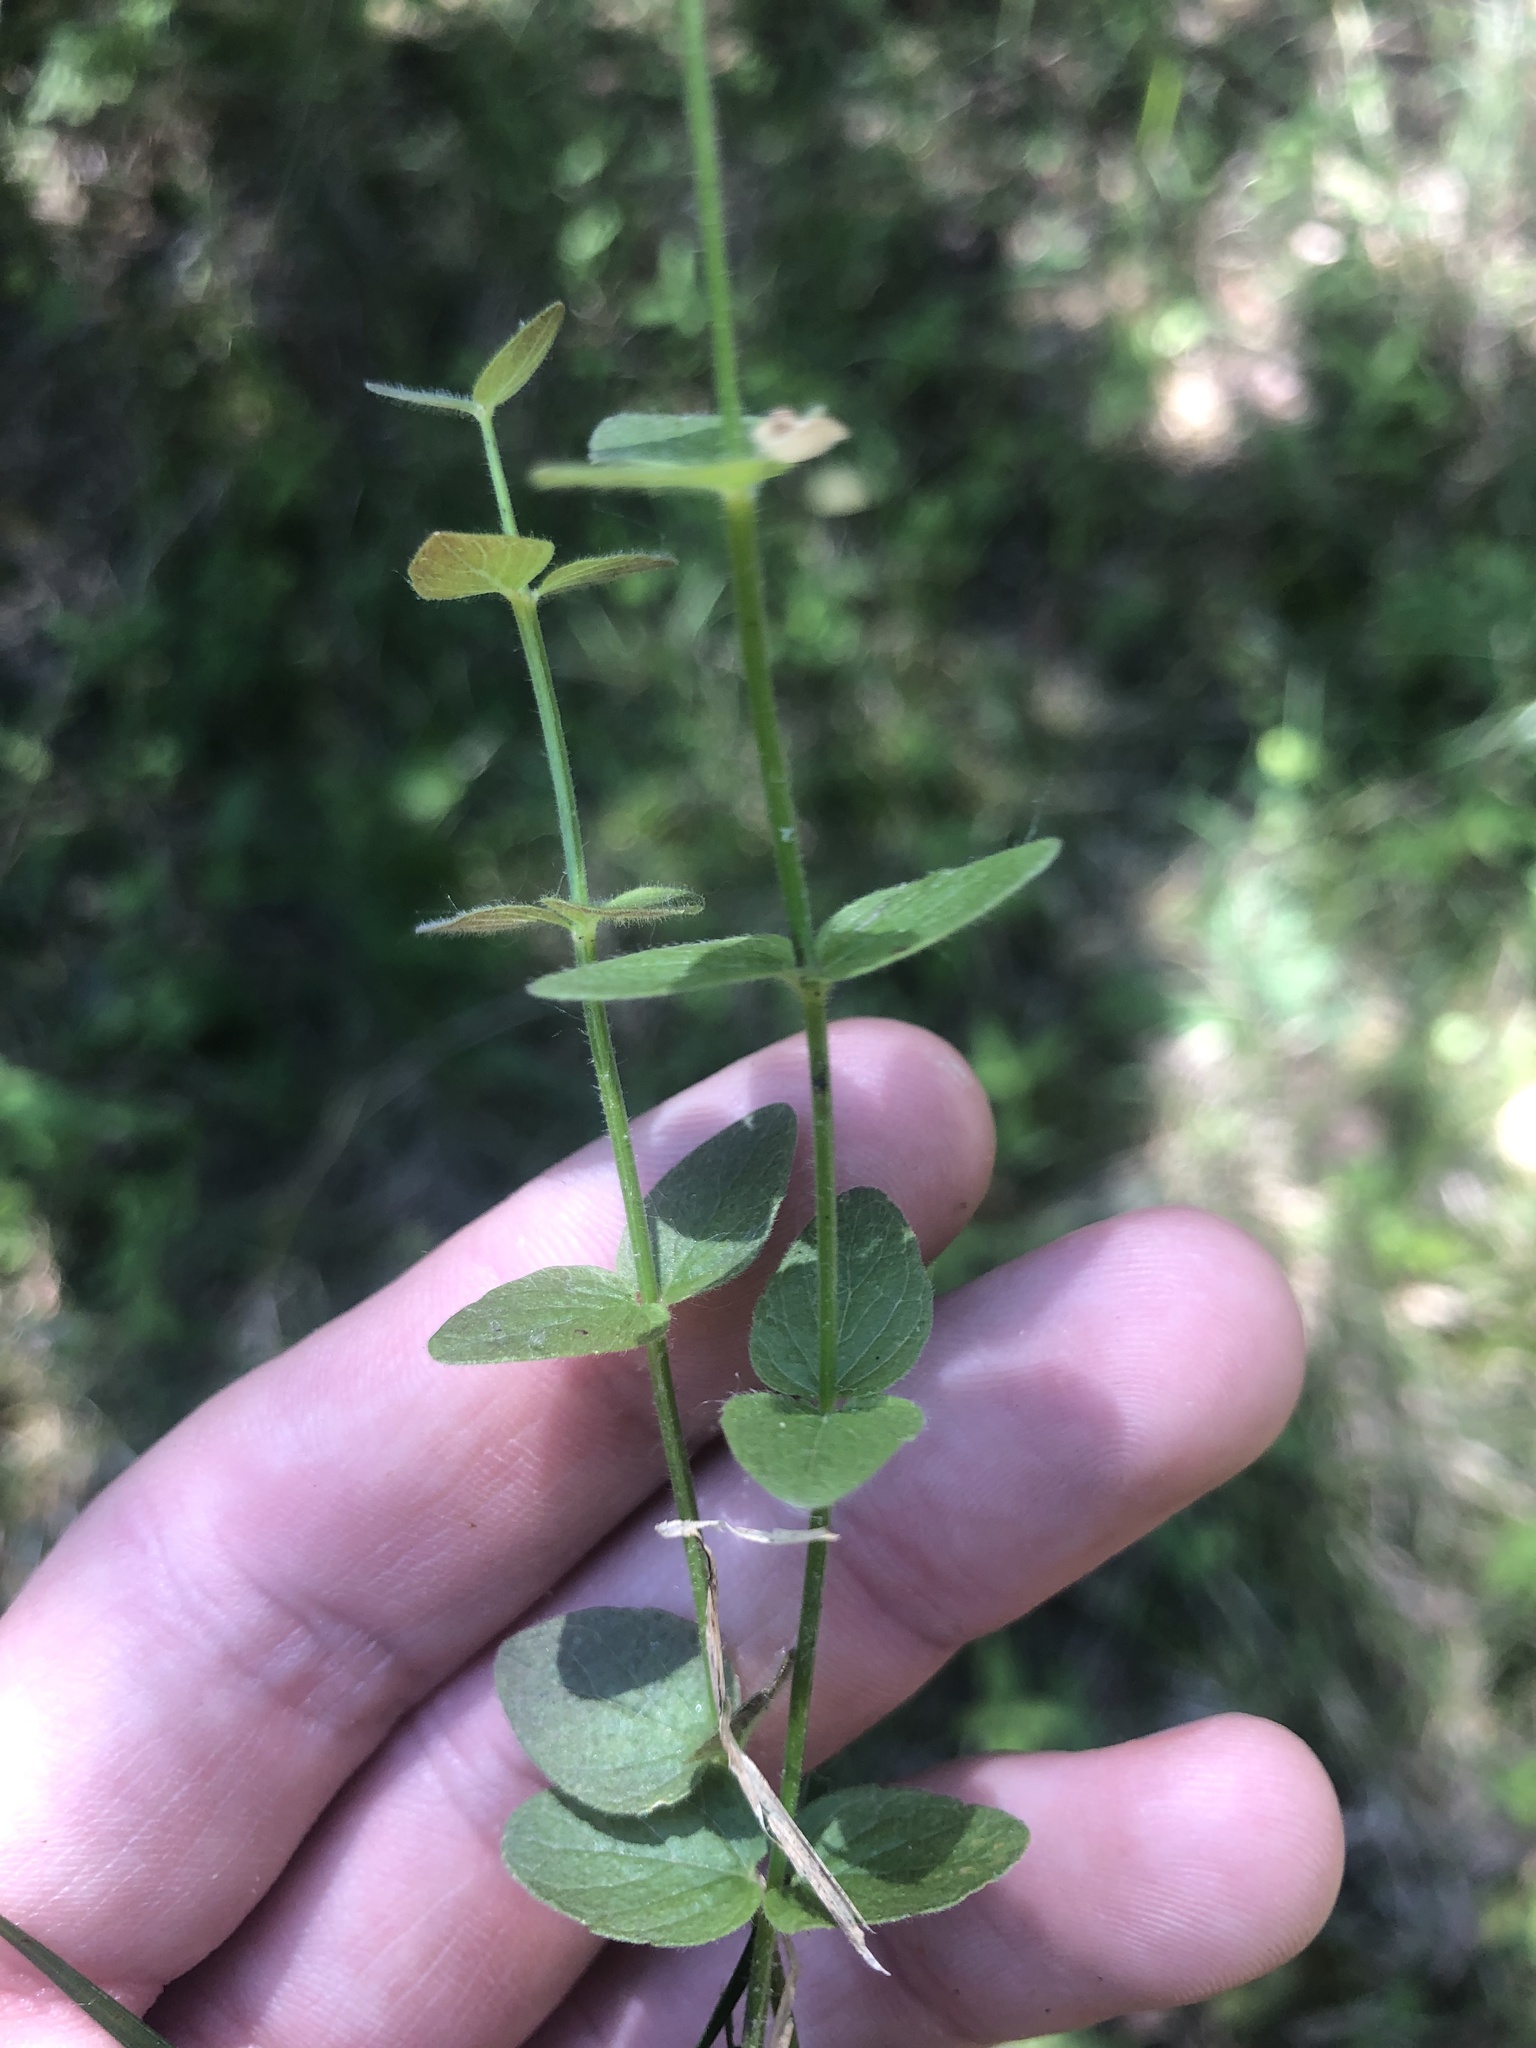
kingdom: Plantae
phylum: Tracheophyta
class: Magnoliopsida
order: Lamiales
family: Lamiaceae
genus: Scutellaria
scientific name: Scutellaria parvula
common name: Little scullcap
